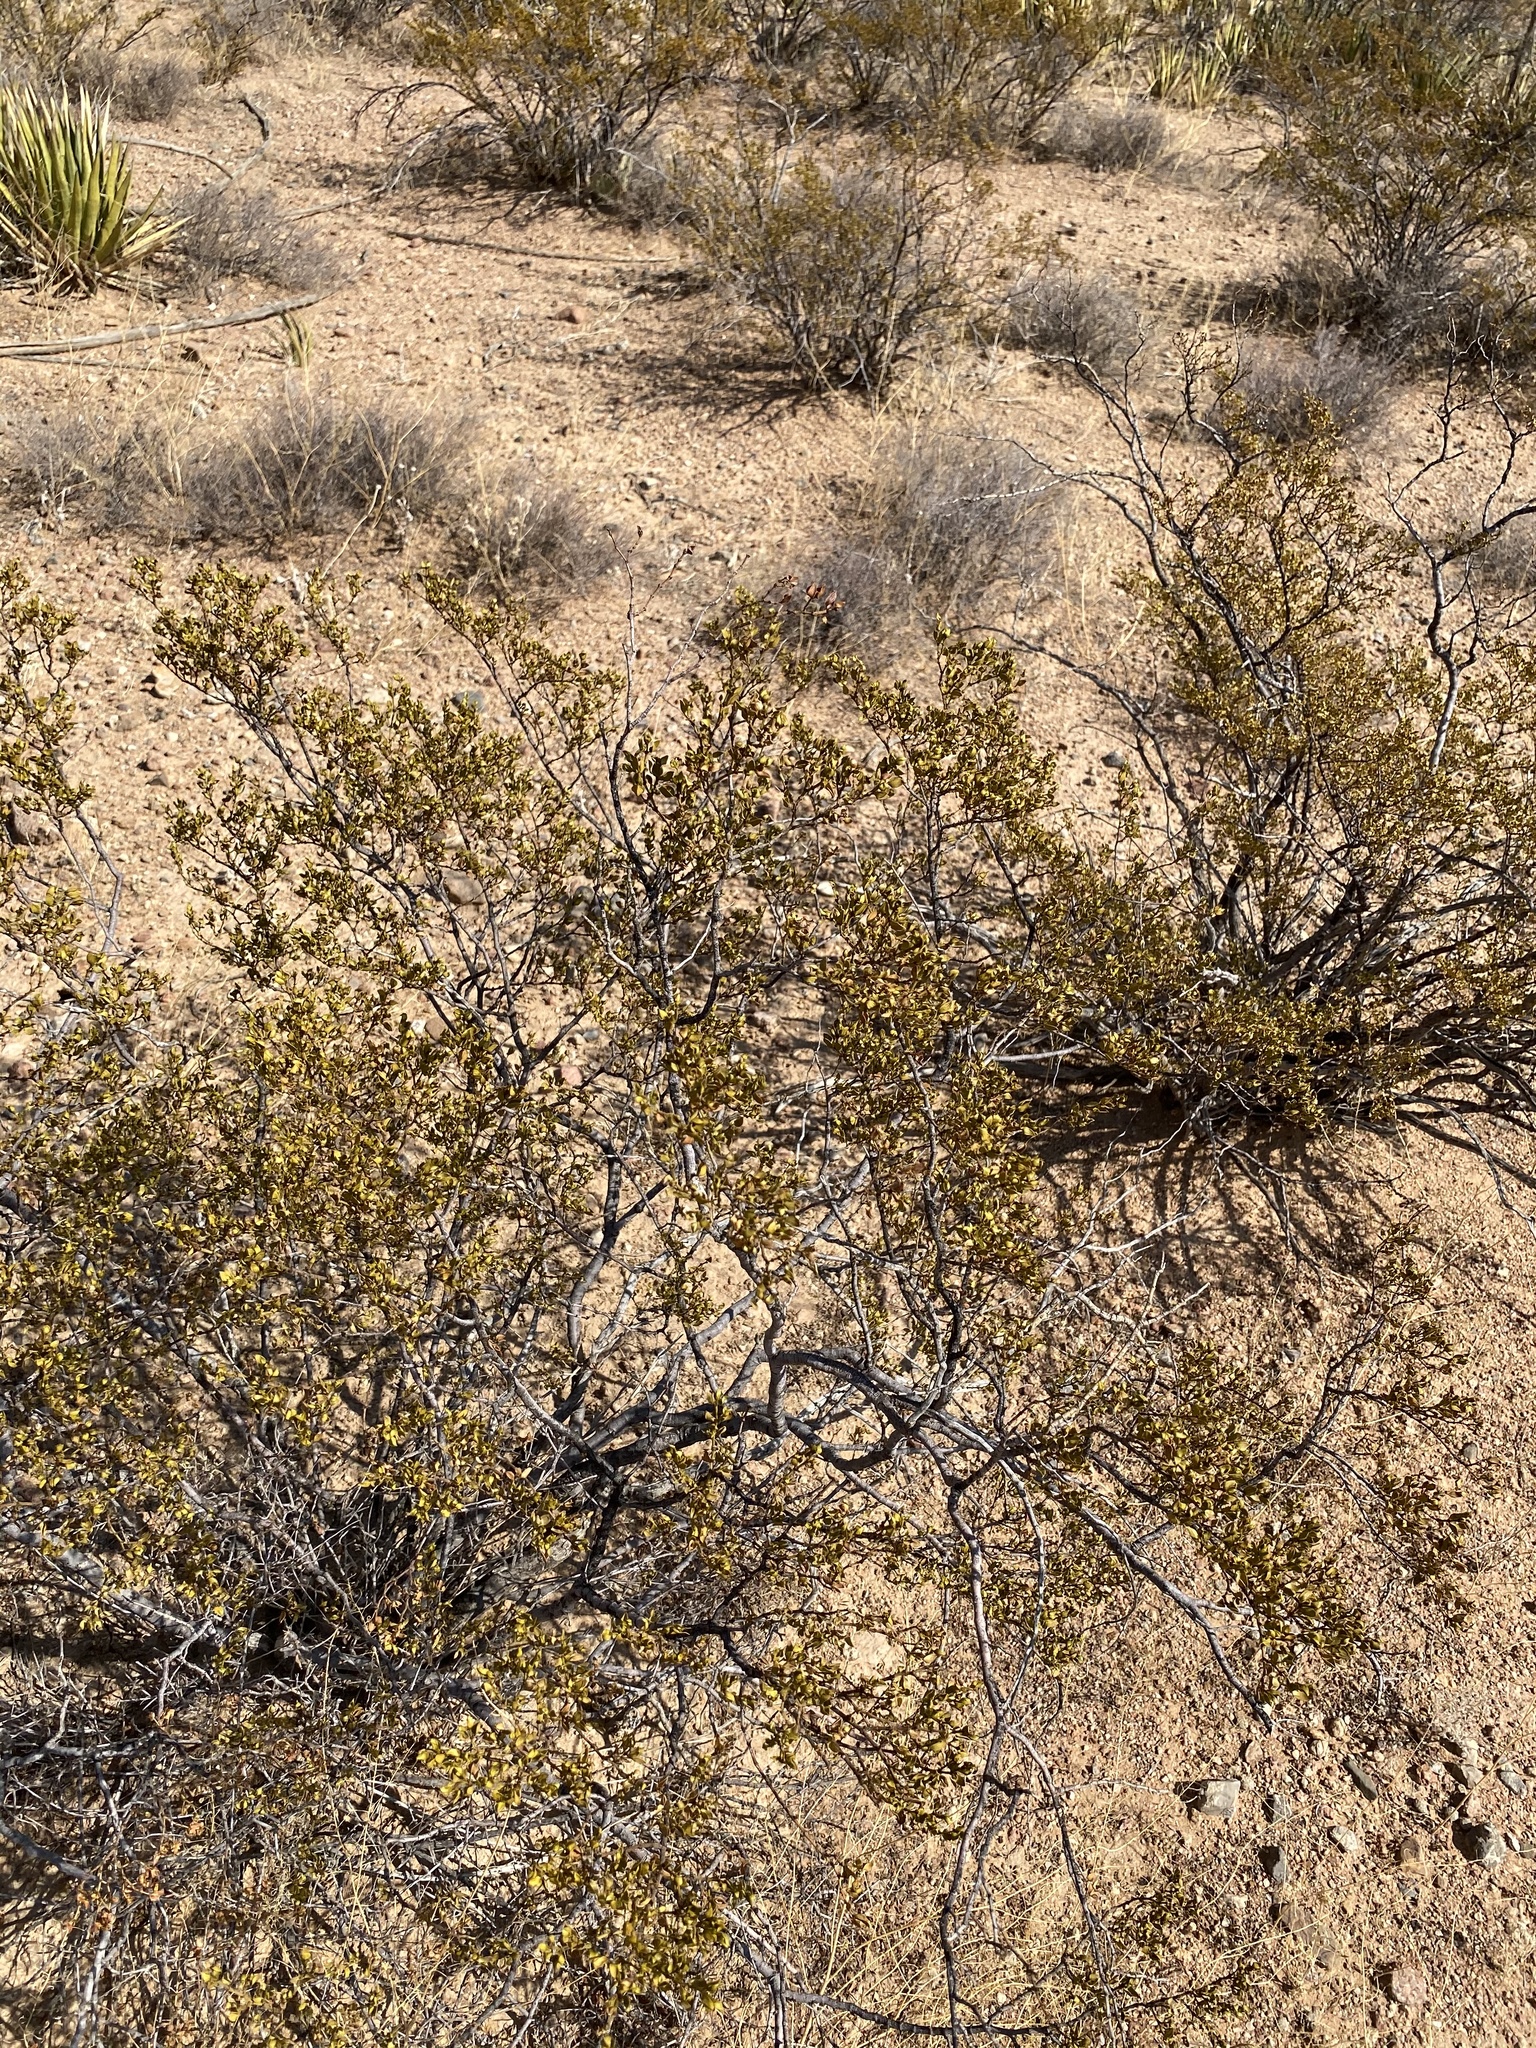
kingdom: Plantae
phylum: Tracheophyta
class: Magnoliopsida
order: Zygophyllales
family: Zygophyllaceae
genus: Larrea
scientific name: Larrea tridentata
